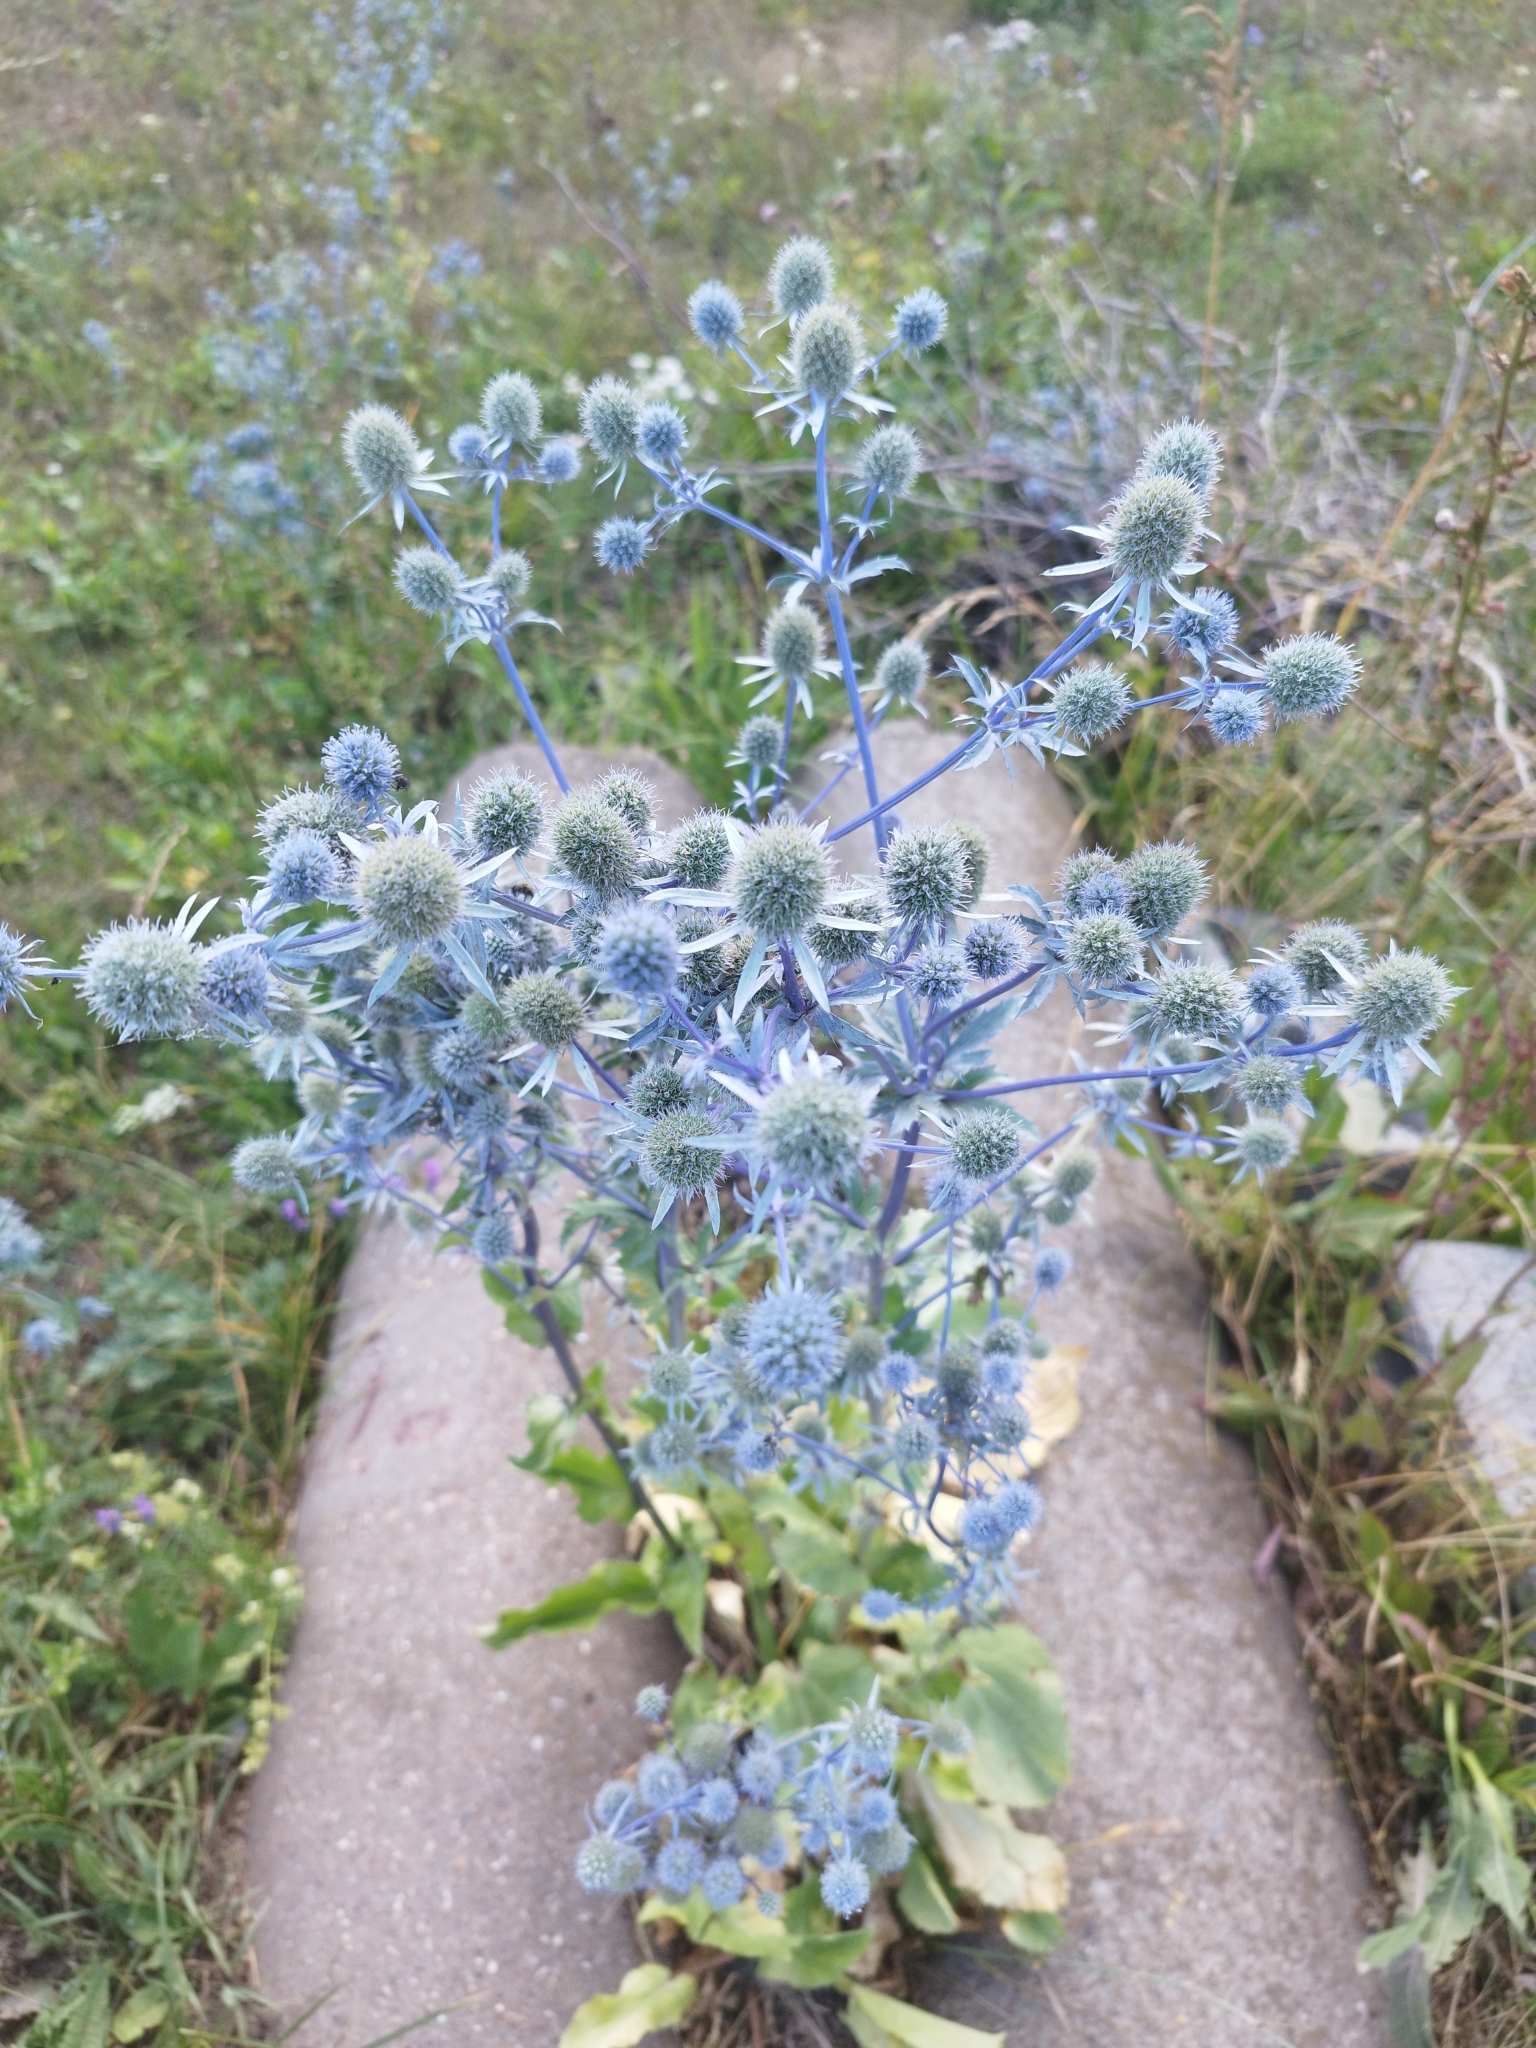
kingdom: Plantae
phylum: Tracheophyta
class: Magnoliopsida
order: Apiales
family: Apiaceae
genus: Eryngium
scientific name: Eryngium planum
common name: Blue eryngo
